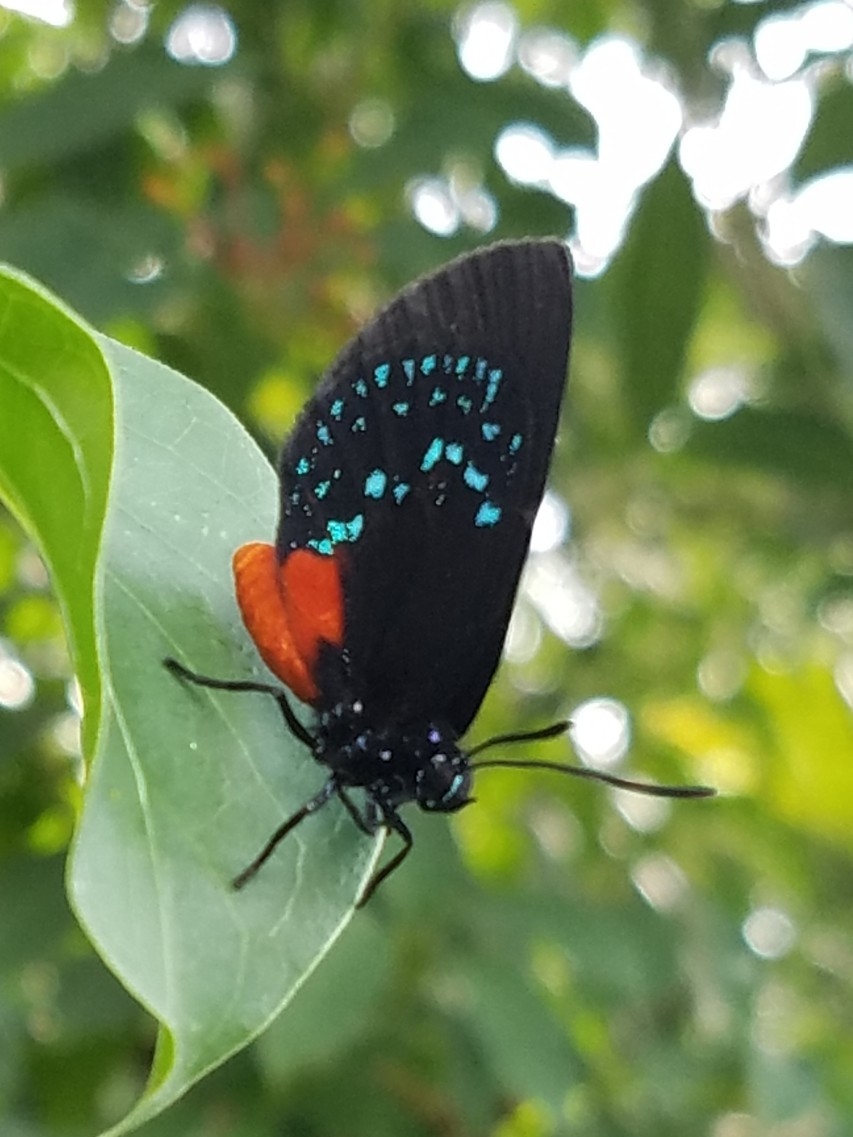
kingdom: Animalia
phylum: Arthropoda
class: Insecta
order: Lepidoptera
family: Lycaenidae
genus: Eumaeus
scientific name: Eumaeus atala
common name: Atala
